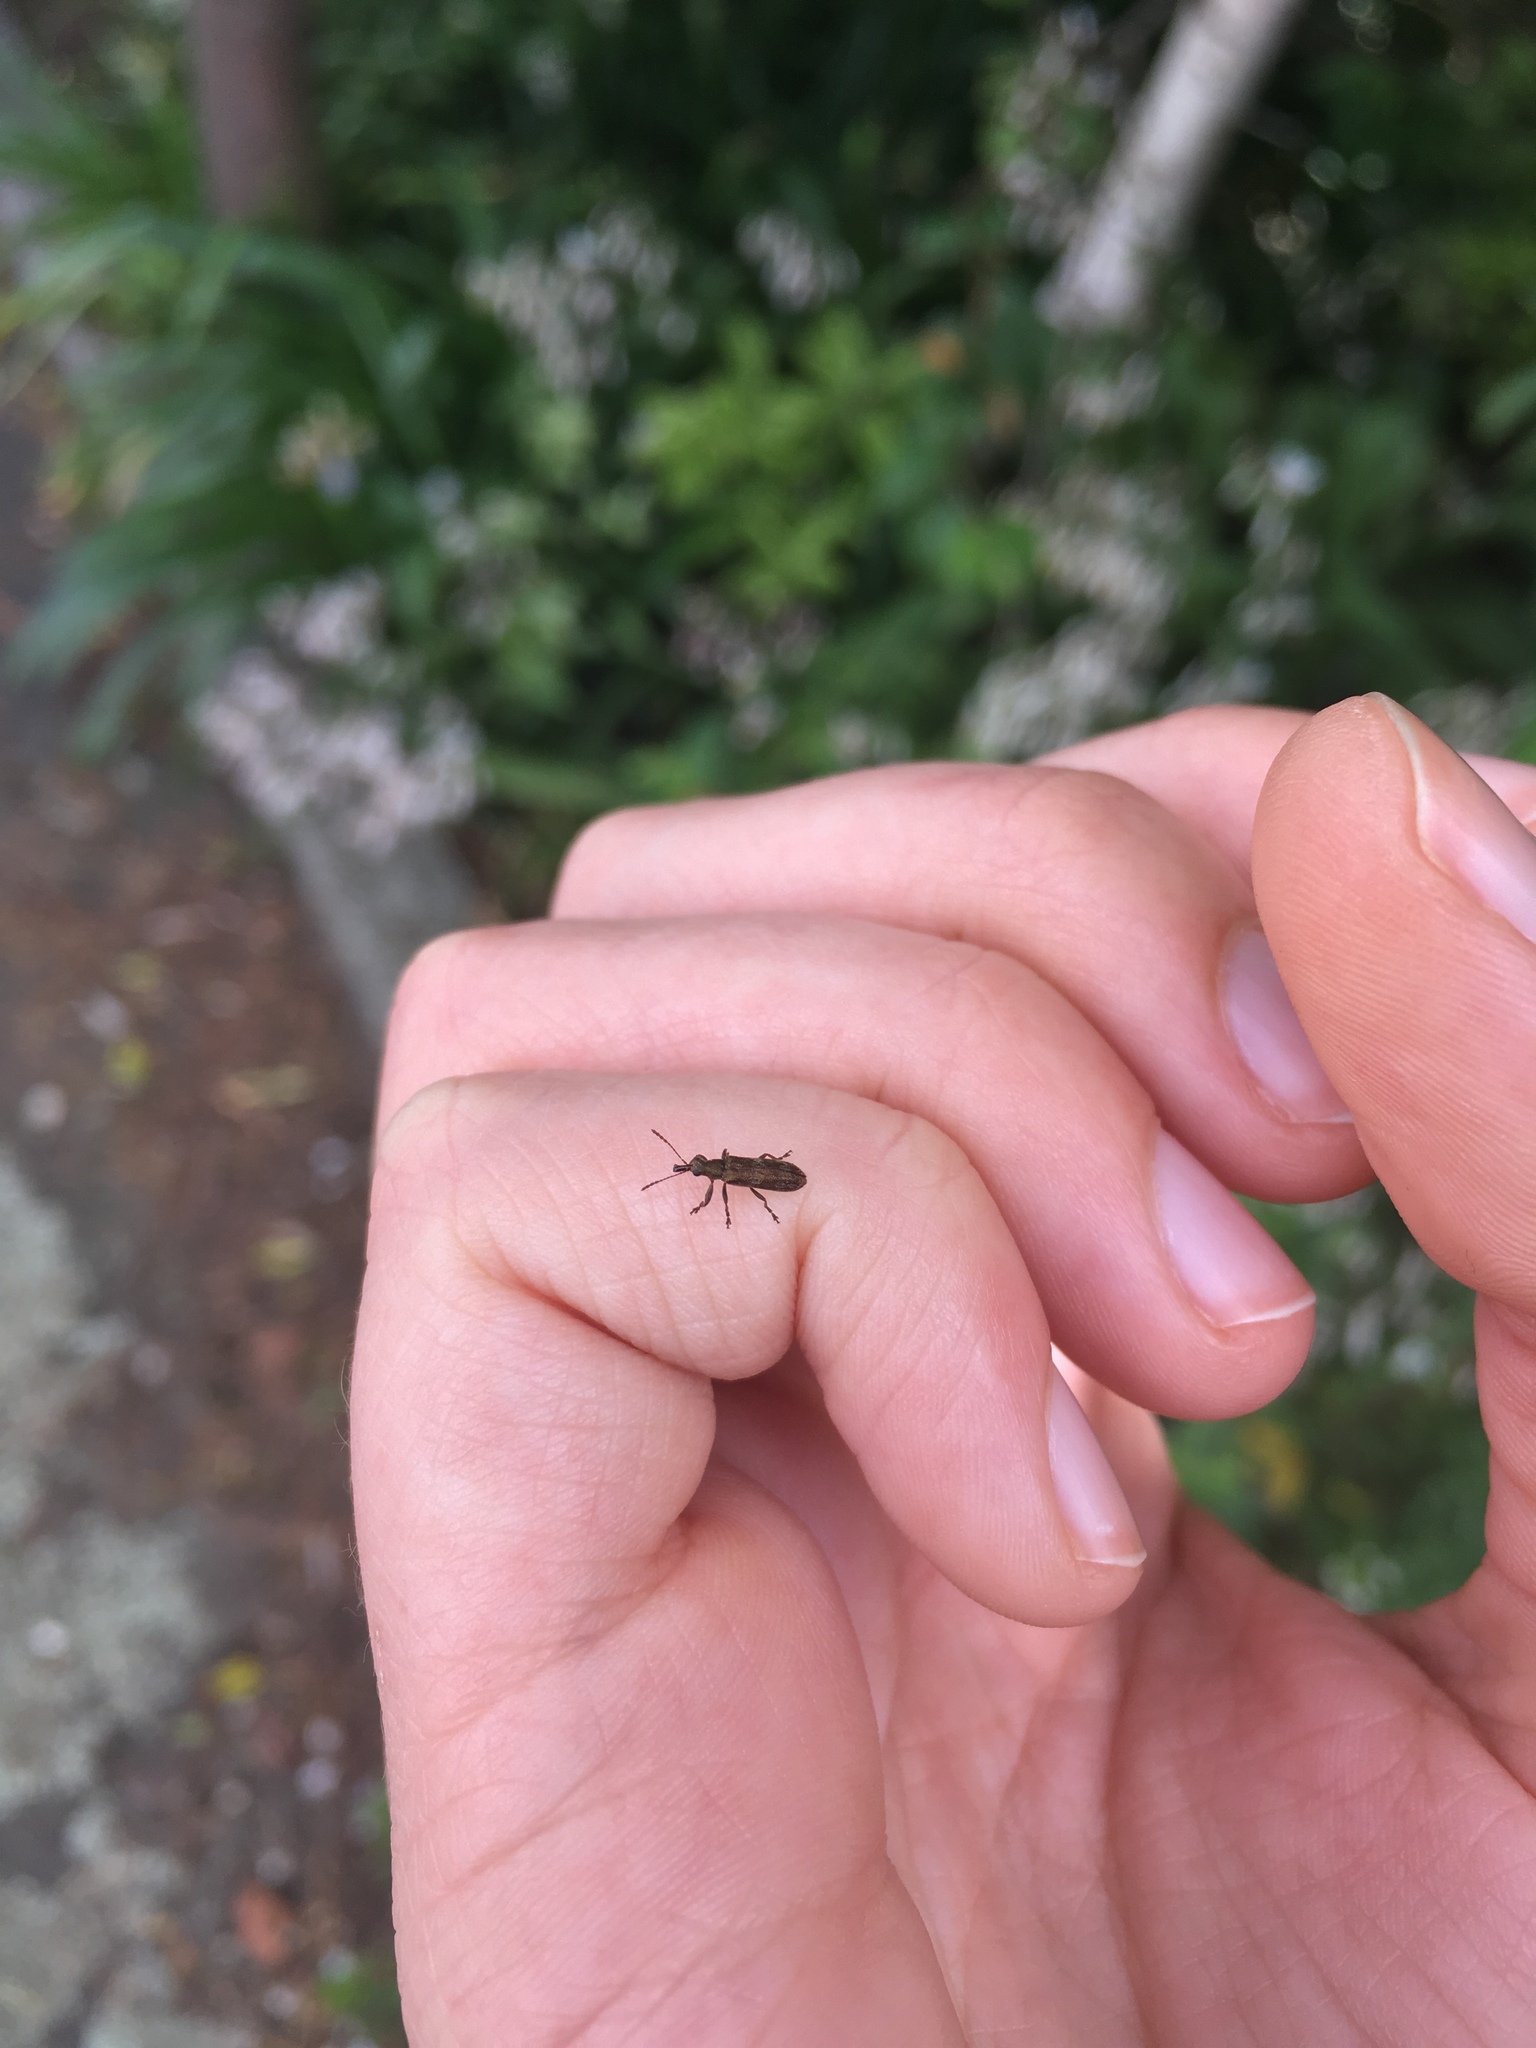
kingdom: Animalia
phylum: Arthropoda
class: Insecta
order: Coleoptera
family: Belidae
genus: Rhicnobelus
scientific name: Rhicnobelus
